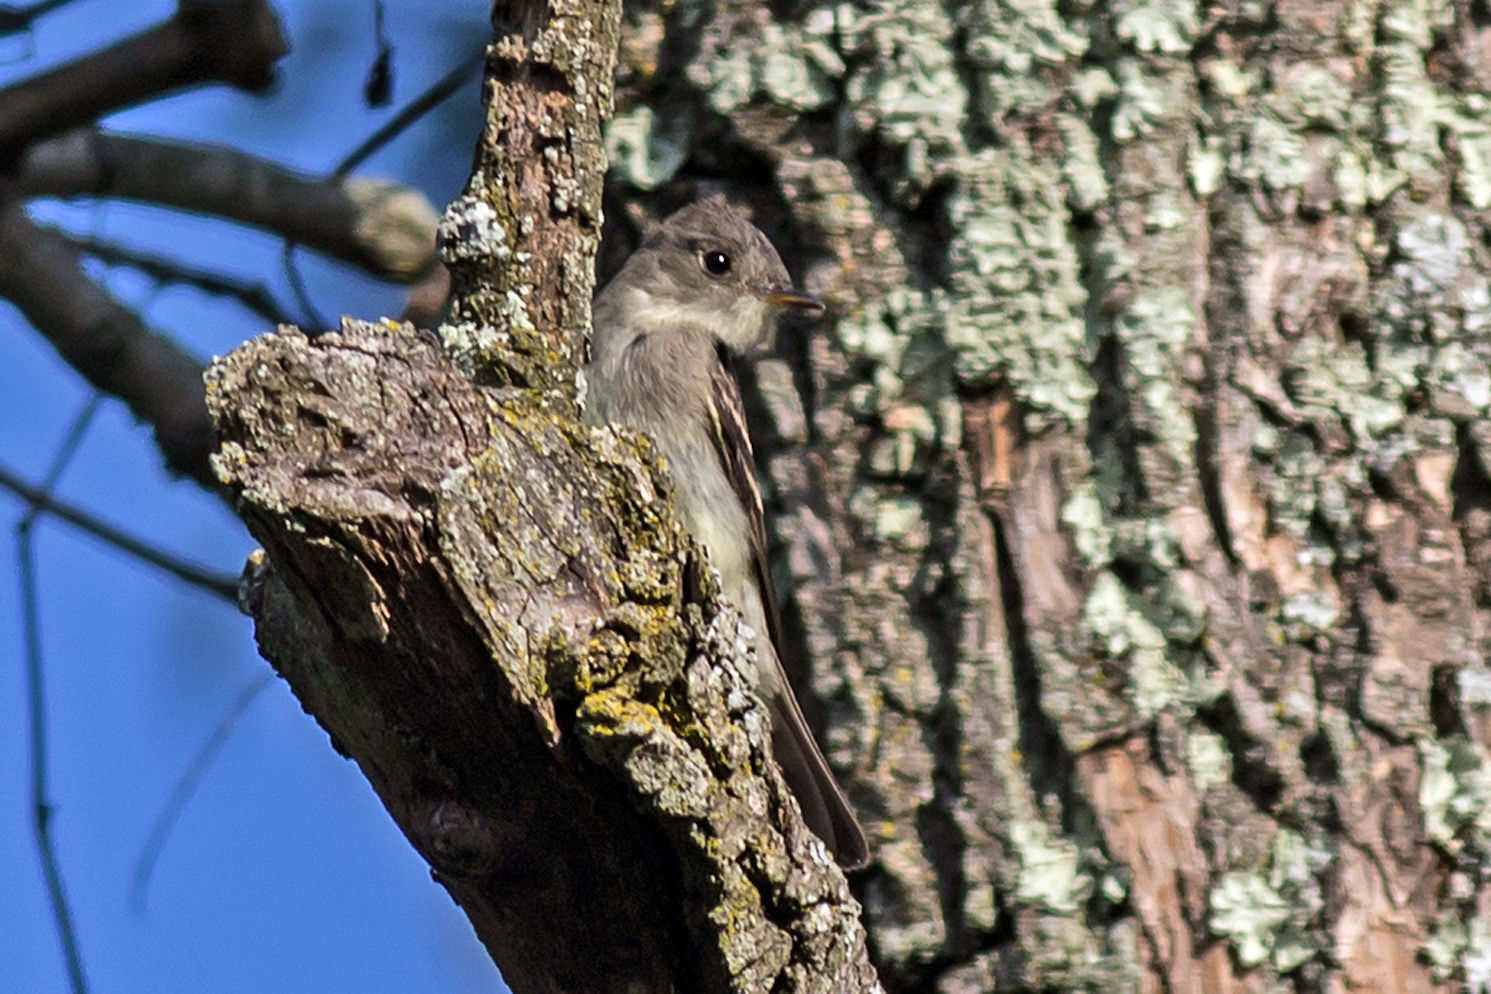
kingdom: Animalia
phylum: Chordata
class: Aves
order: Passeriformes
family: Tyrannidae
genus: Contopus
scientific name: Contopus virens
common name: Eastern wood-pewee
